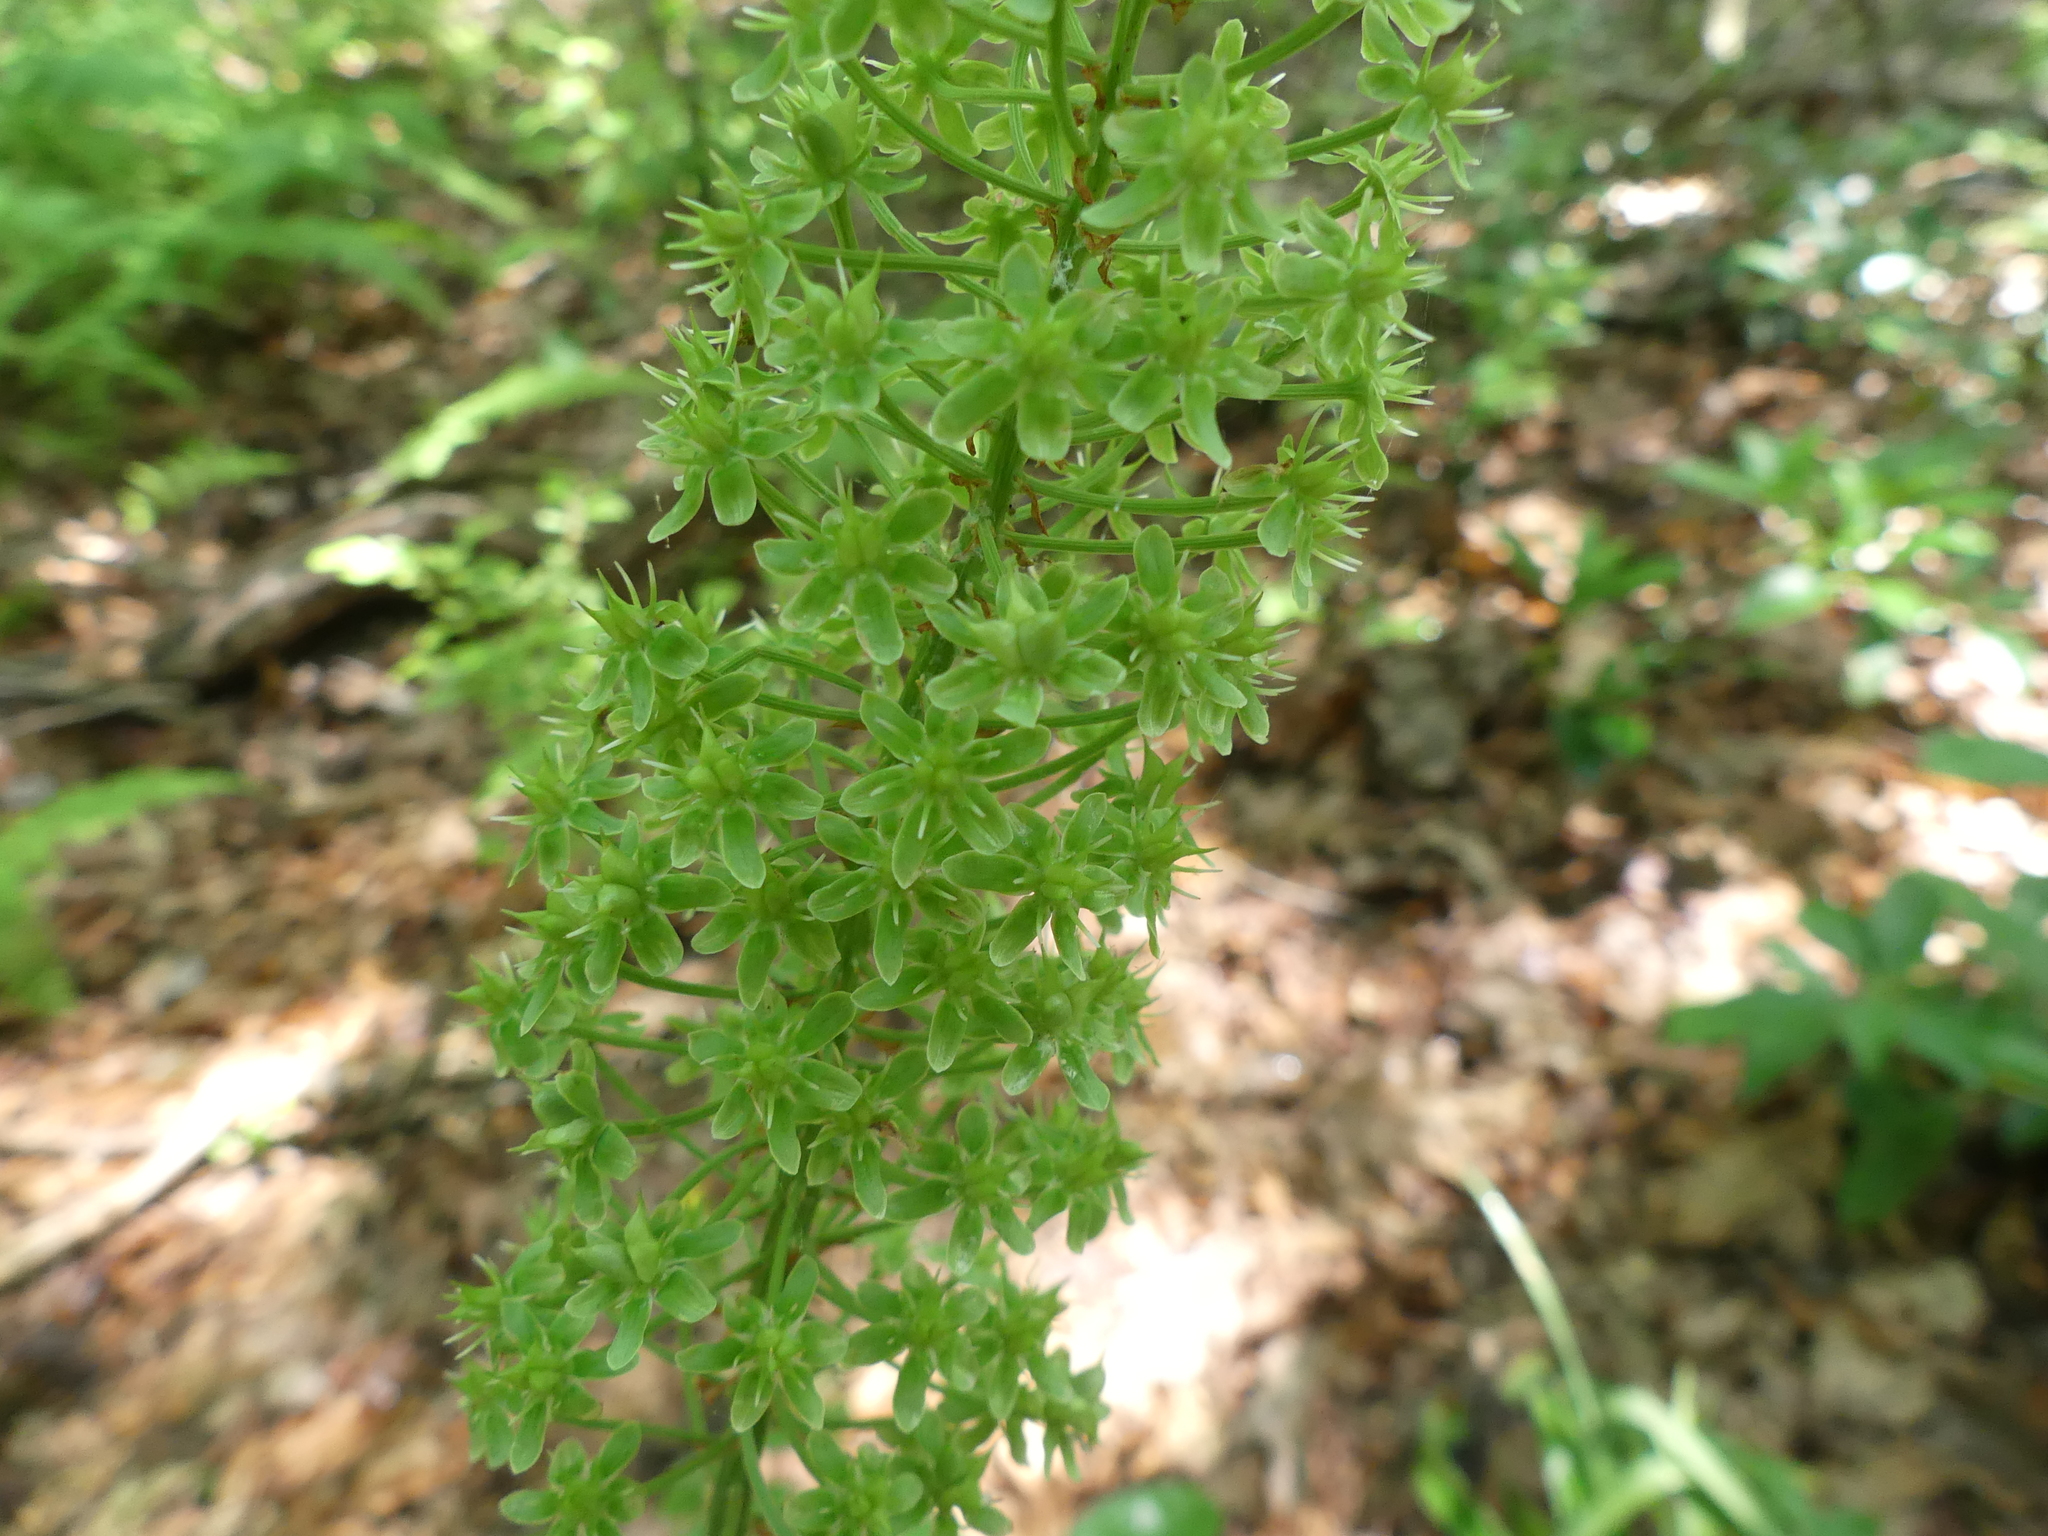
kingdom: Plantae
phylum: Tracheophyta
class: Liliopsida
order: Liliales
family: Melanthiaceae
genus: Amianthium
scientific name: Amianthium muscitoxicum
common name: Fly-poison
